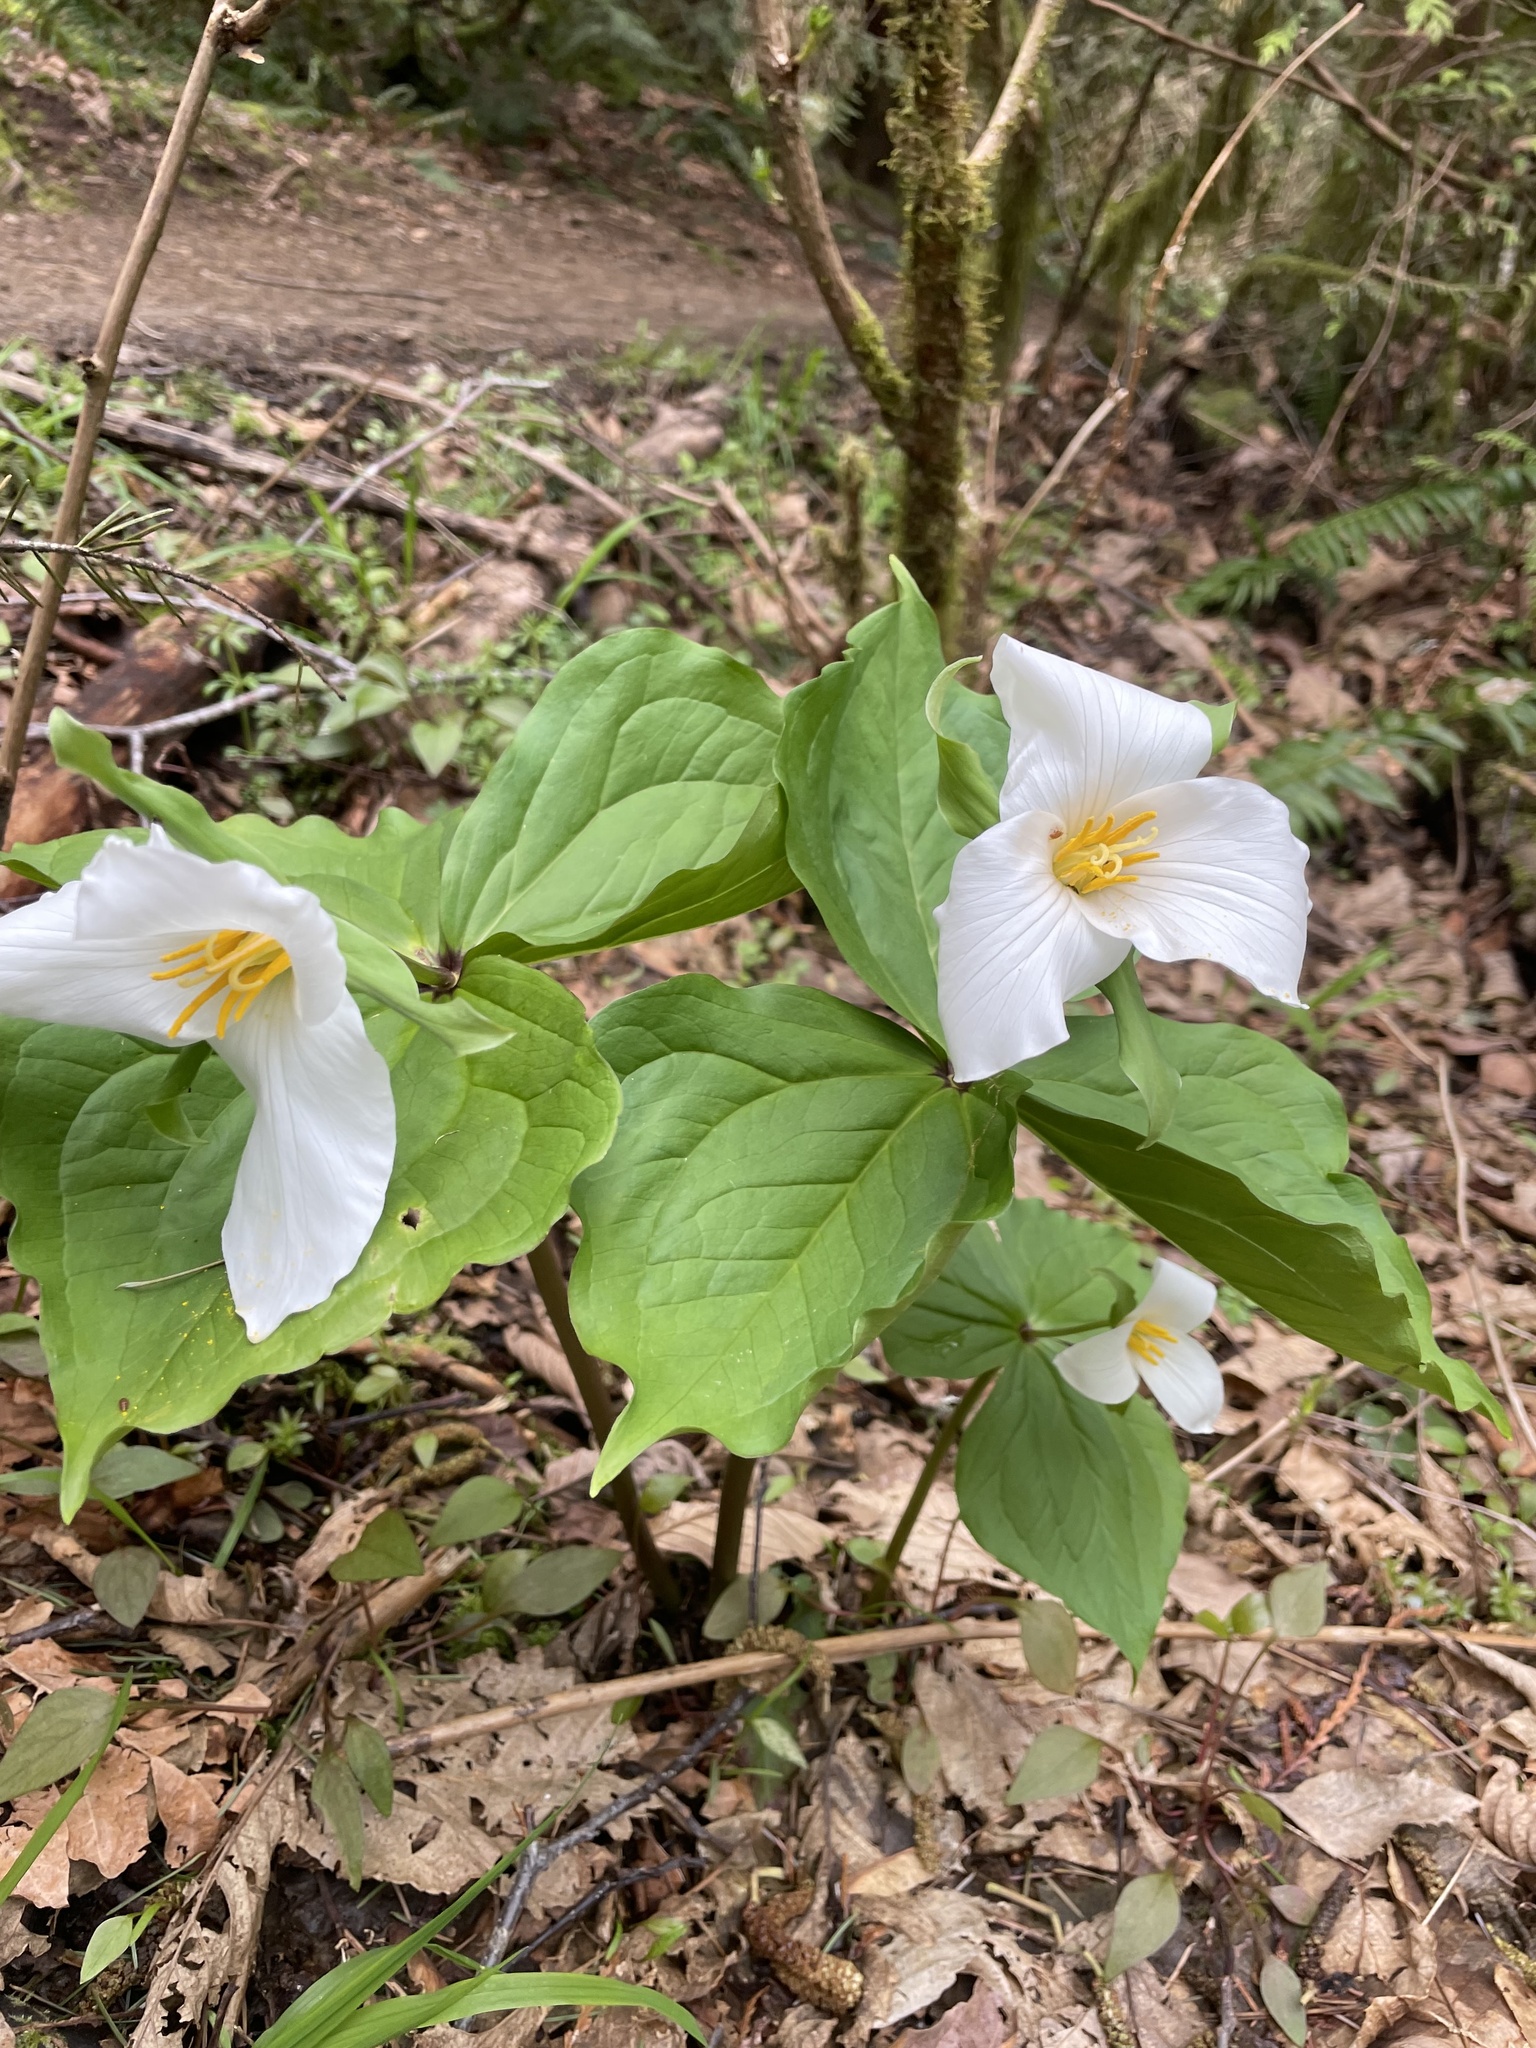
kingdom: Plantae
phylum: Tracheophyta
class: Liliopsida
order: Liliales
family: Melanthiaceae
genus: Trillium
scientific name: Trillium ovatum
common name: Pacific trillium
